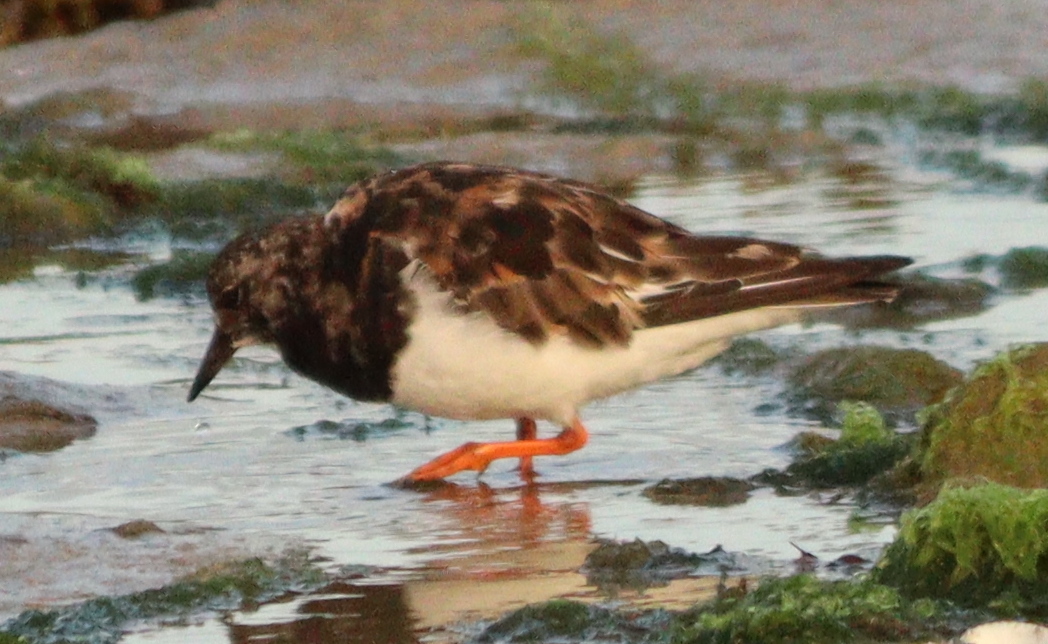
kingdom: Animalia
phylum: Chordata
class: Aves
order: Charadriiformes
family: Scolopacidae
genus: Arenaria
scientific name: Arenaria interpres
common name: Ruddy turnstone
